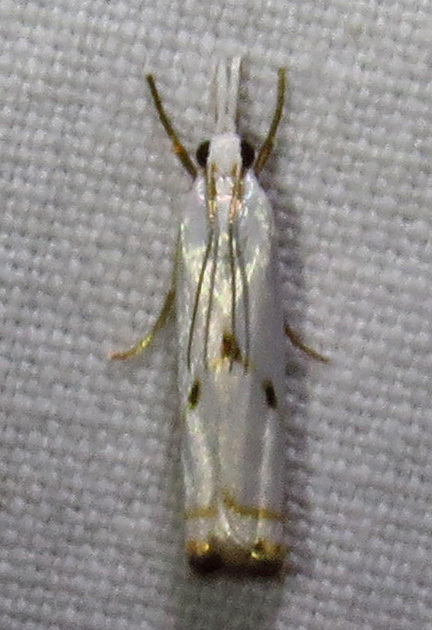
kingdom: Animalia
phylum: Arthropoda
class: Insecta
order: Lepidoptera
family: Crambidae
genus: Microcrambus
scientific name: Microcrambus biguttellus
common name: Gold-stripe grass-veneer moth
